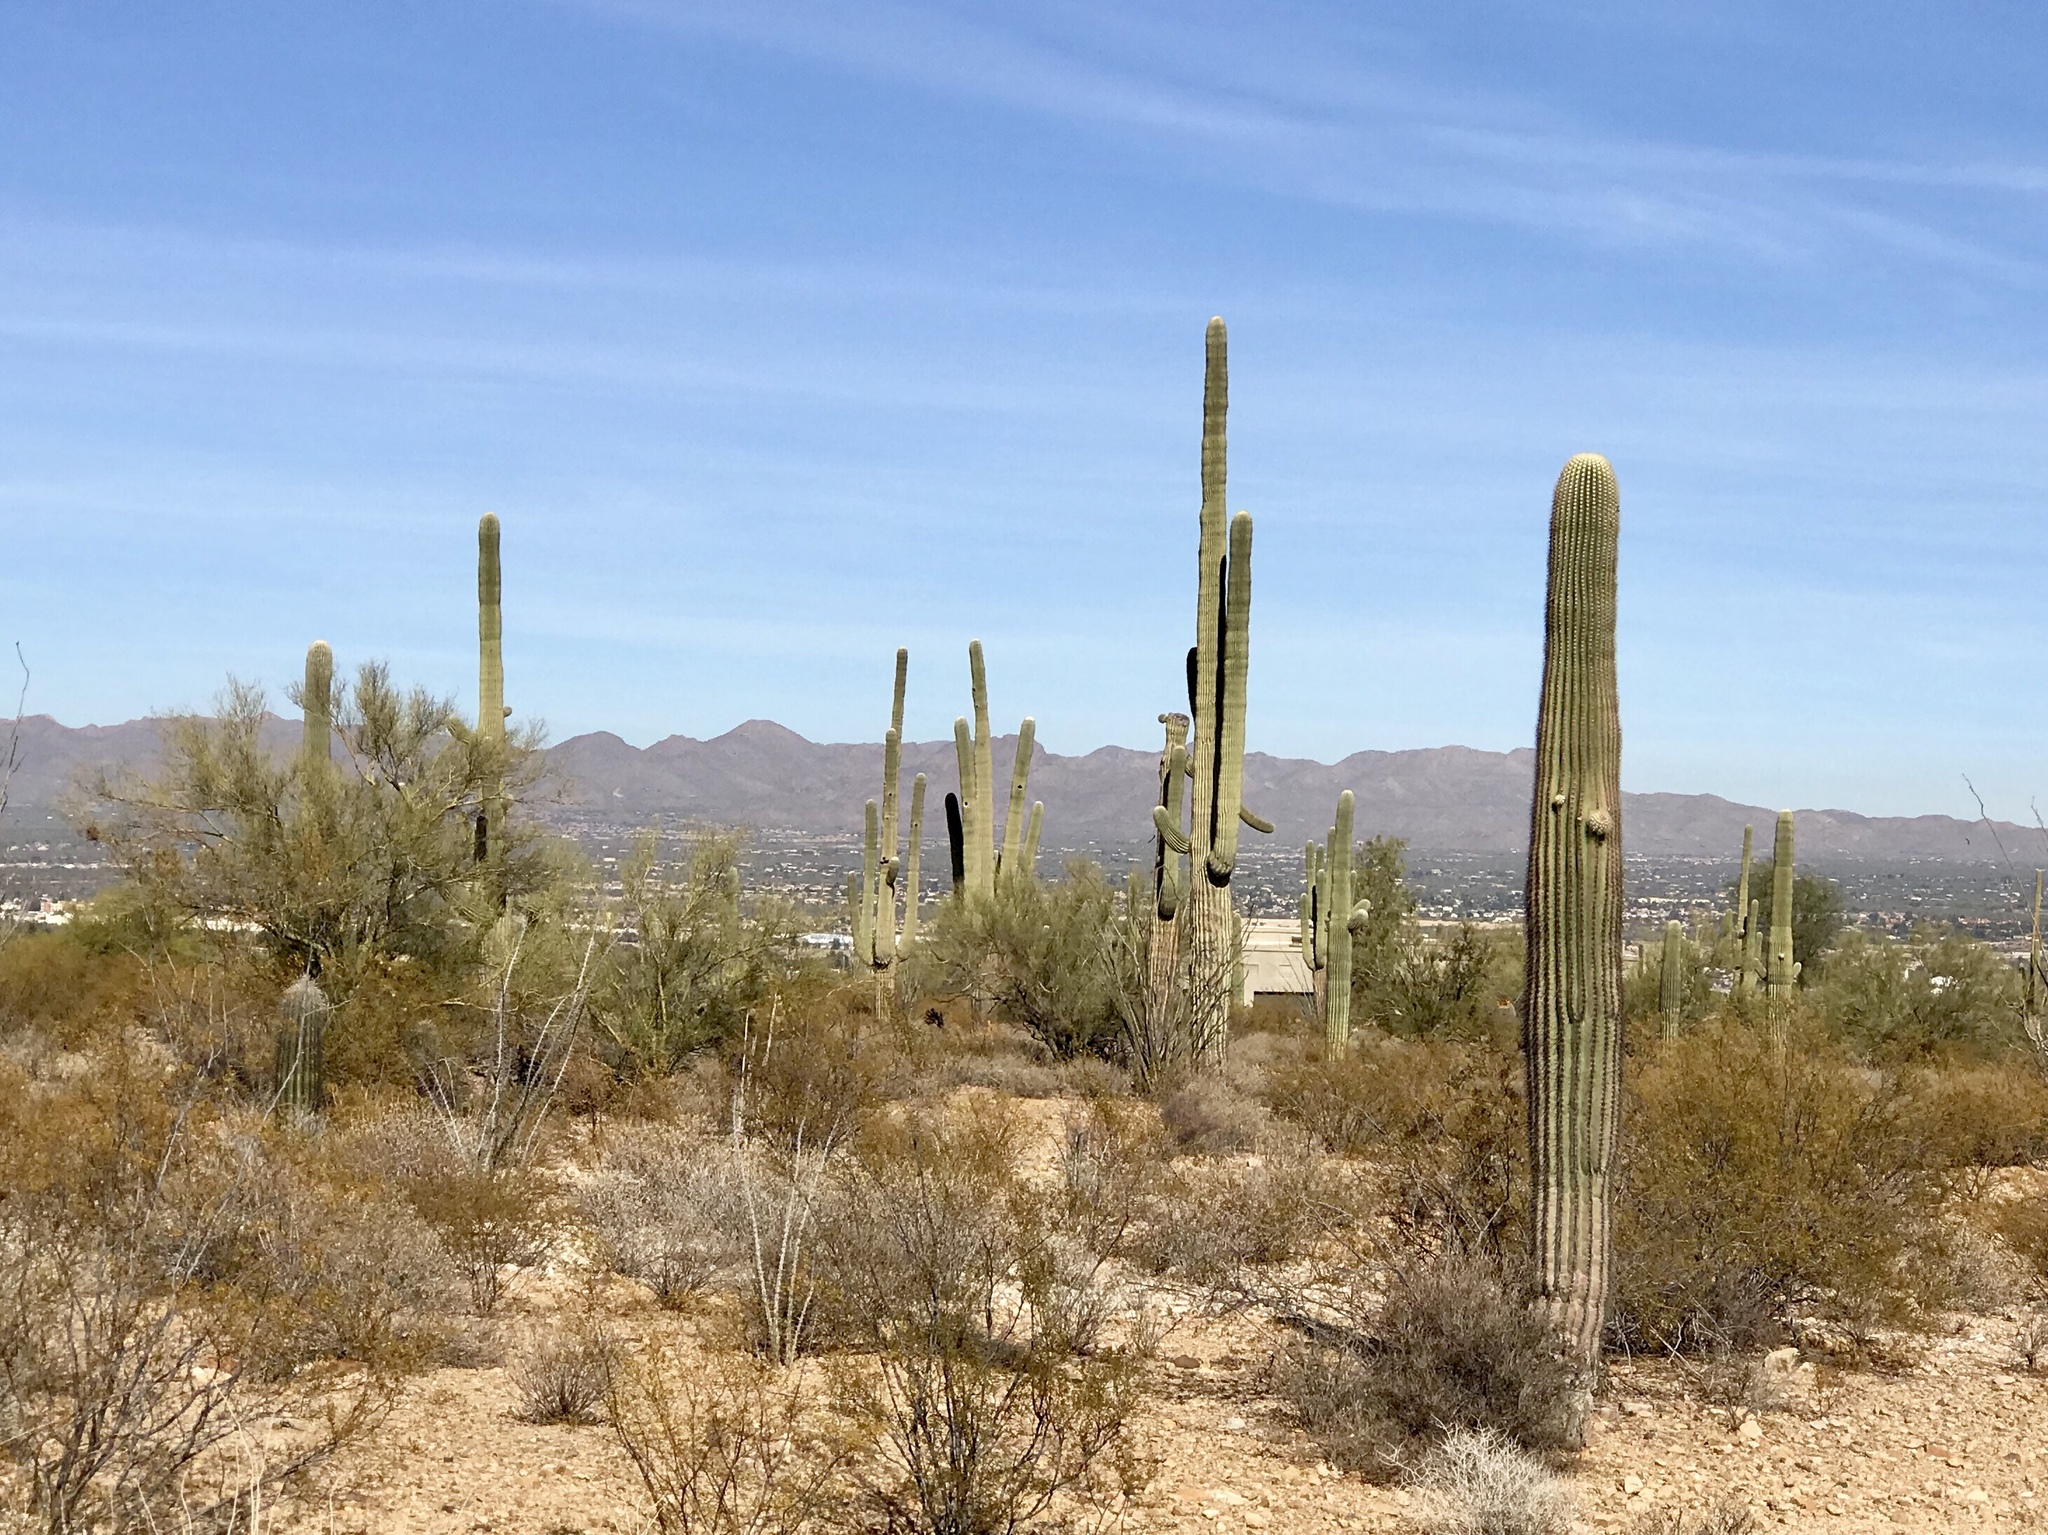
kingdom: Plantae
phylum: Tracheophyta
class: Magnoliopsida
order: Caryophyllales
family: Cactaceae
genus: Carnegiea
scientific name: Carnegiea gigantea
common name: Saguaro
